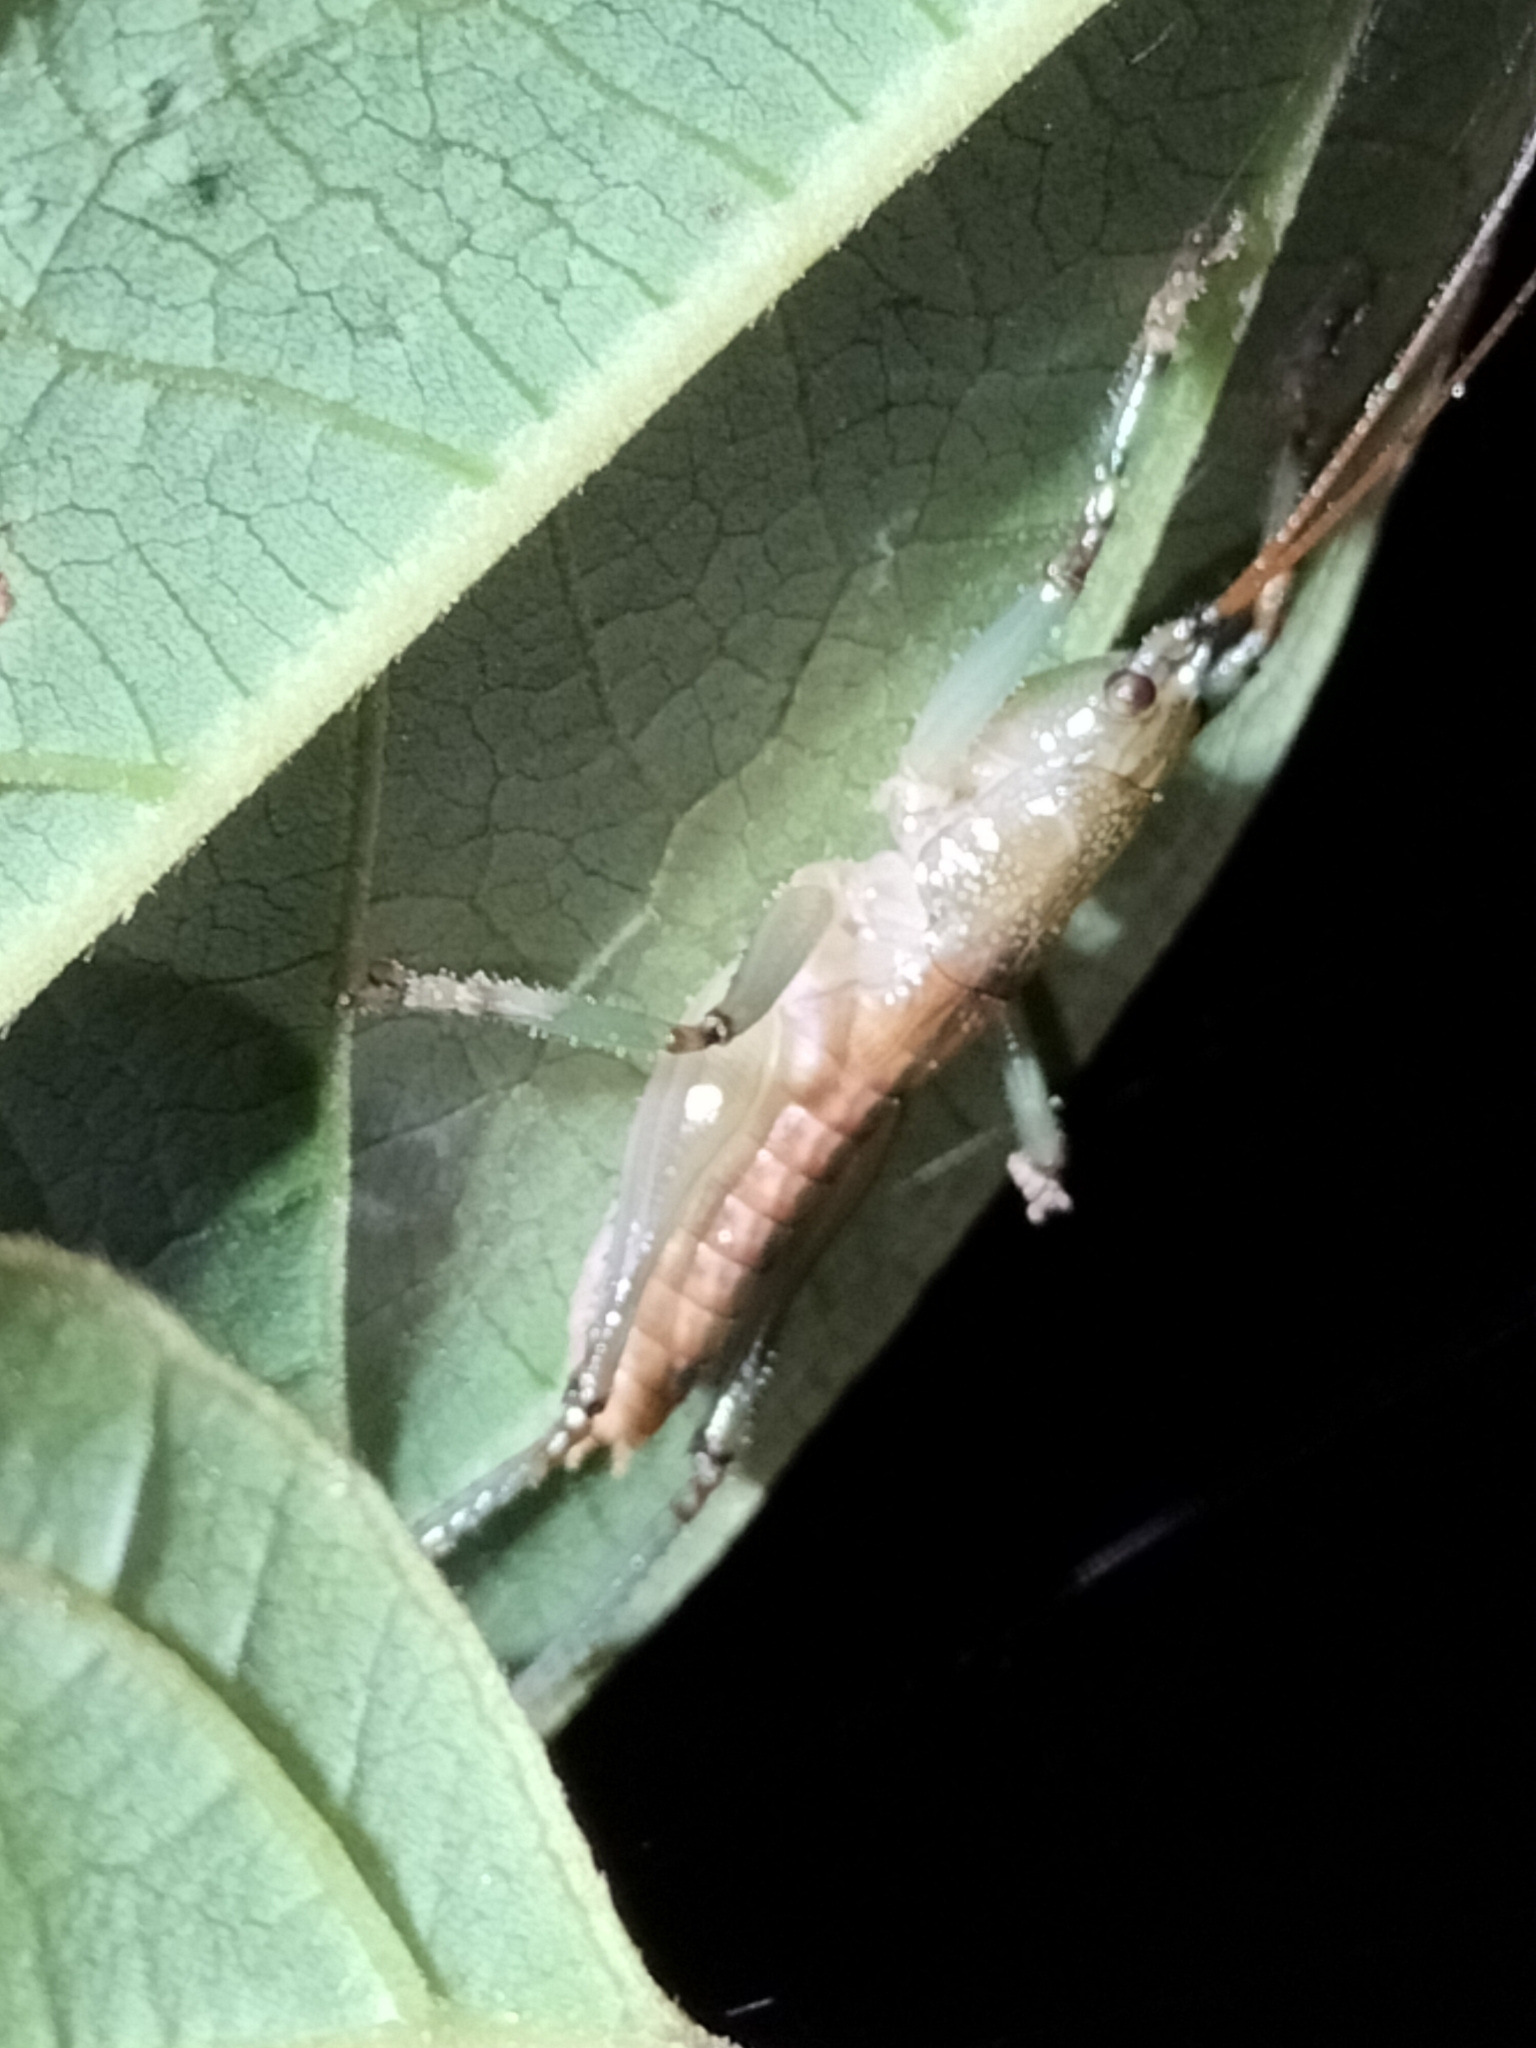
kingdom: Animalia
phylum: Arthropoda
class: Insecta
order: Orthoptera
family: Tettigoniidae
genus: Barbaragraecia
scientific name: Barbaragraecia unicorn
